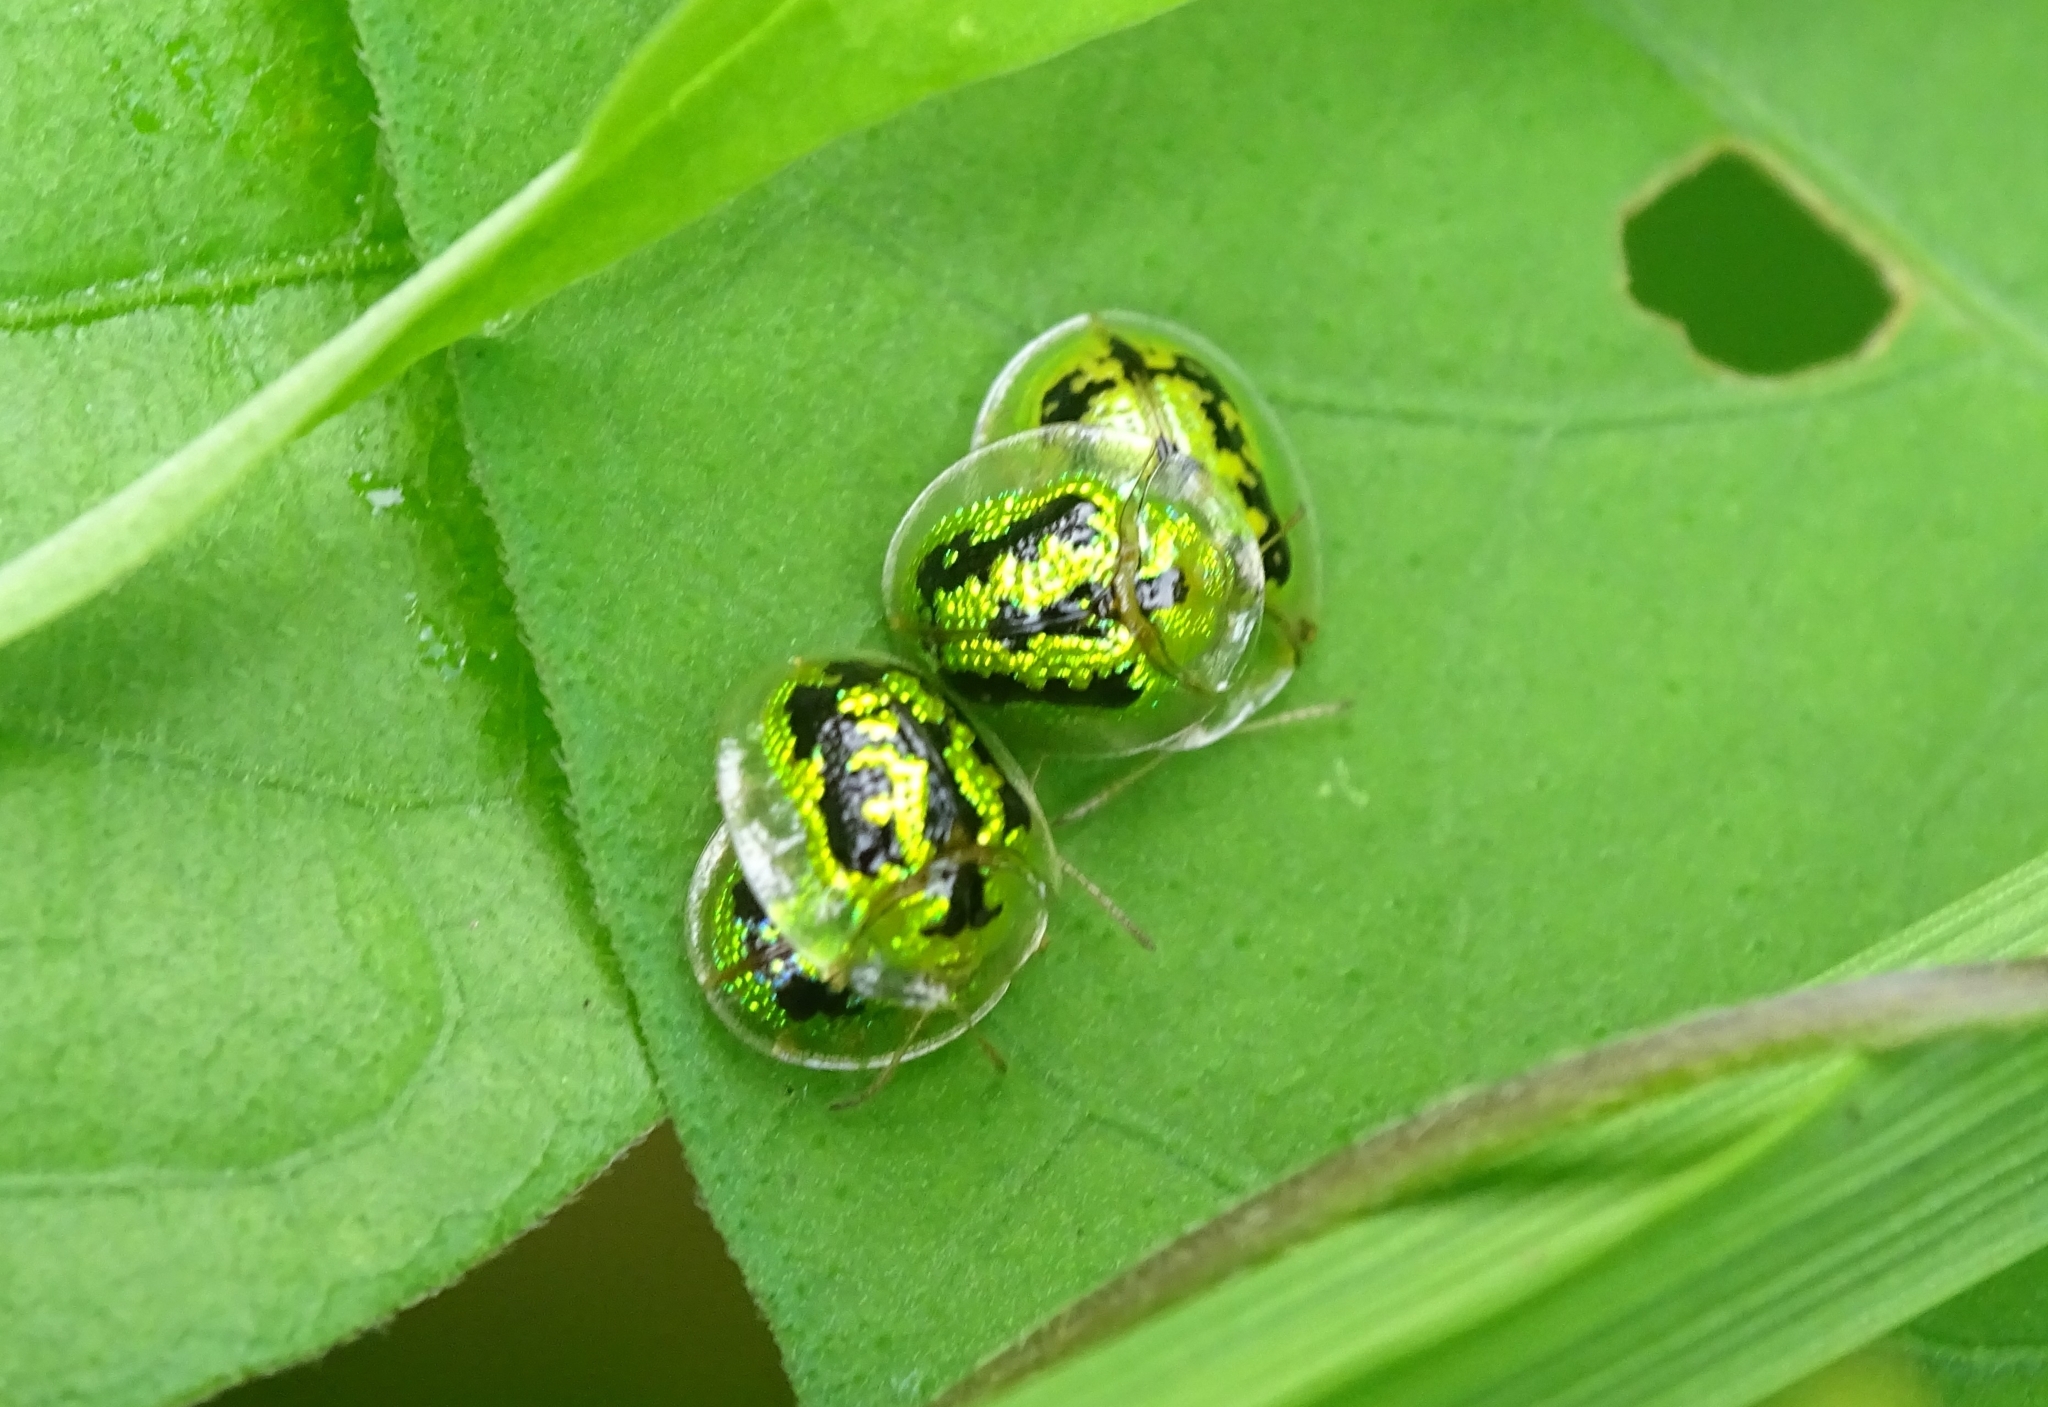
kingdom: Animalia
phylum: Arthropoda
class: Insecta
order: Coleoptera
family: Chrysomelidae
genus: Cassida
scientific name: Cassida circumdata
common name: Tortoise beetle
